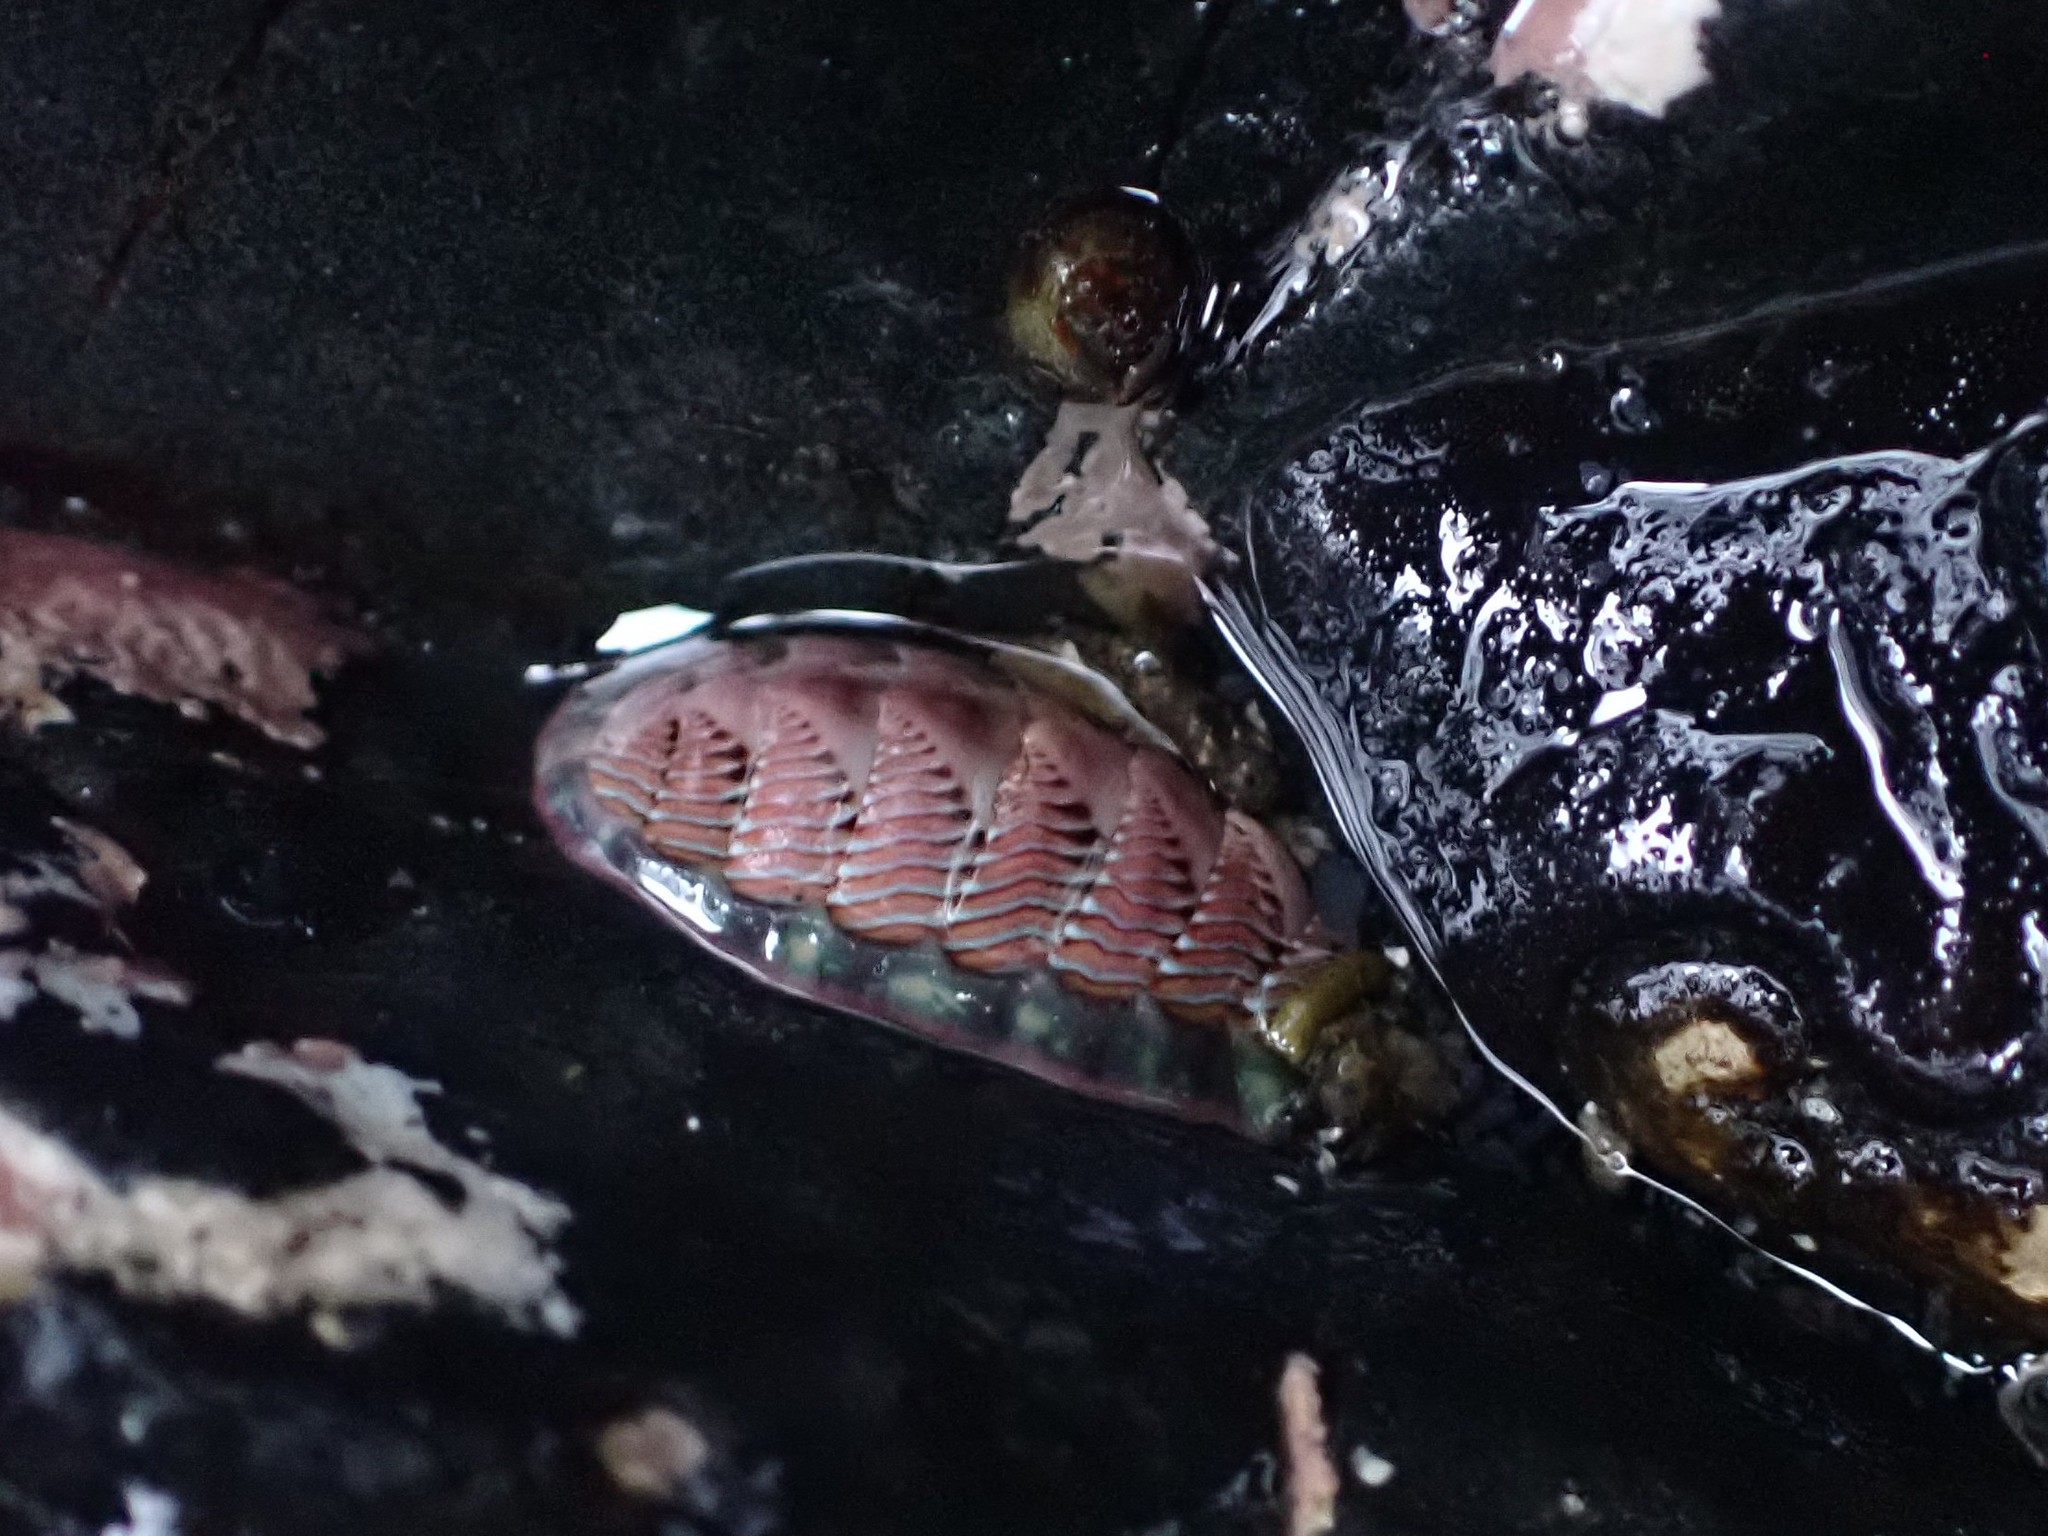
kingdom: Animalia
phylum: Mollusca
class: Polyplacophora
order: Chitonida
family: Tonicellidae
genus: Tonicella
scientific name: Tonicella lineata
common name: Lined chiton
